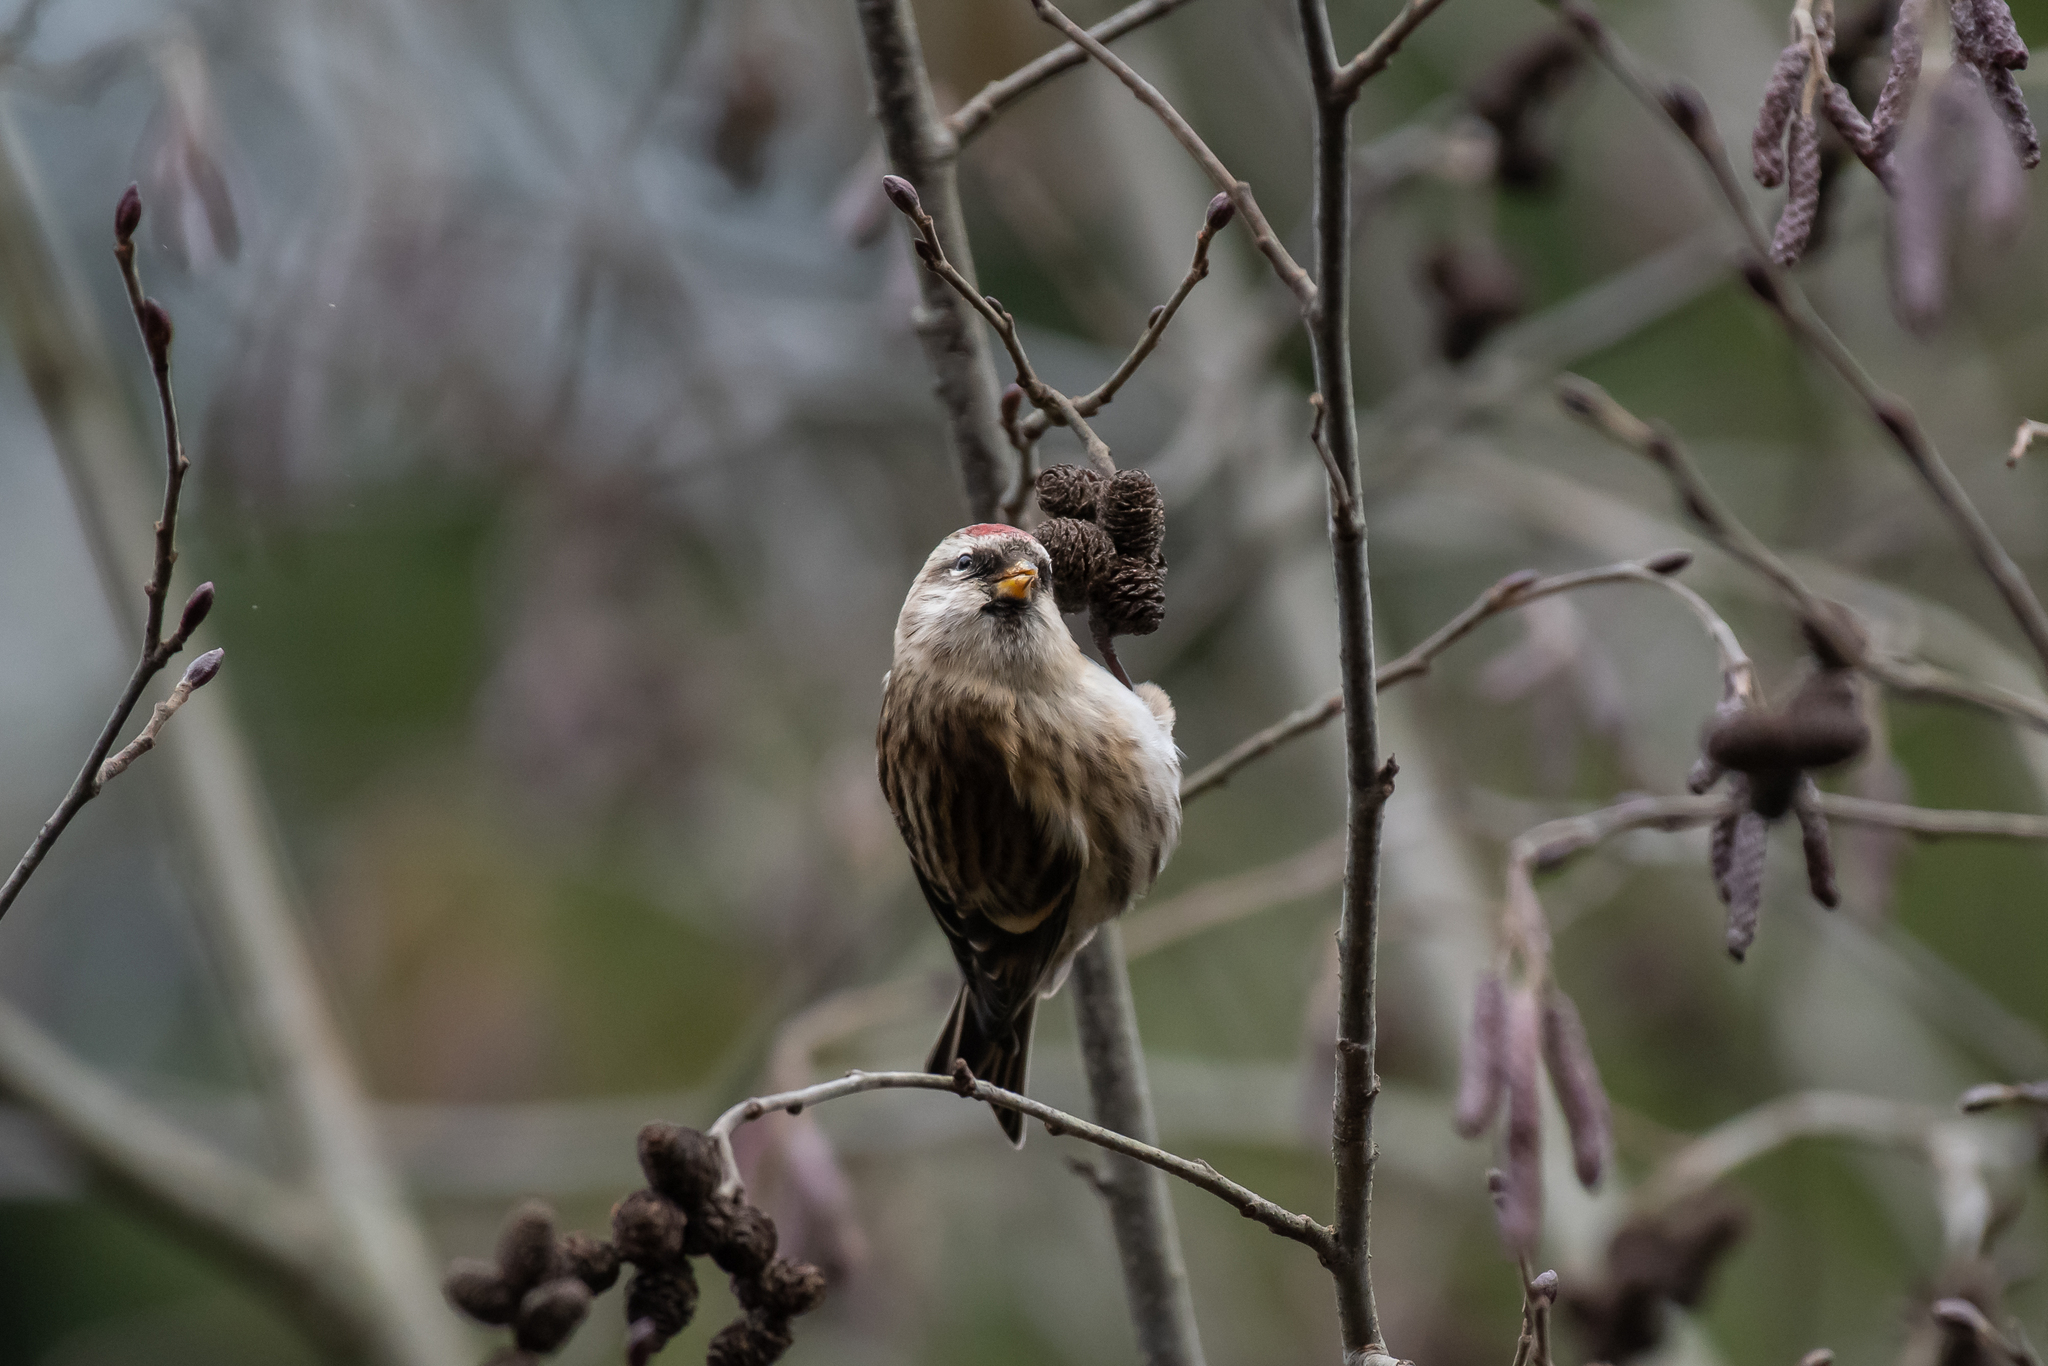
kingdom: Animalia
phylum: Chordata
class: Aves
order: Passeriformes
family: Fringillidae
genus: Acanthis
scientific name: Acanthis flammea
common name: Common redpoll
